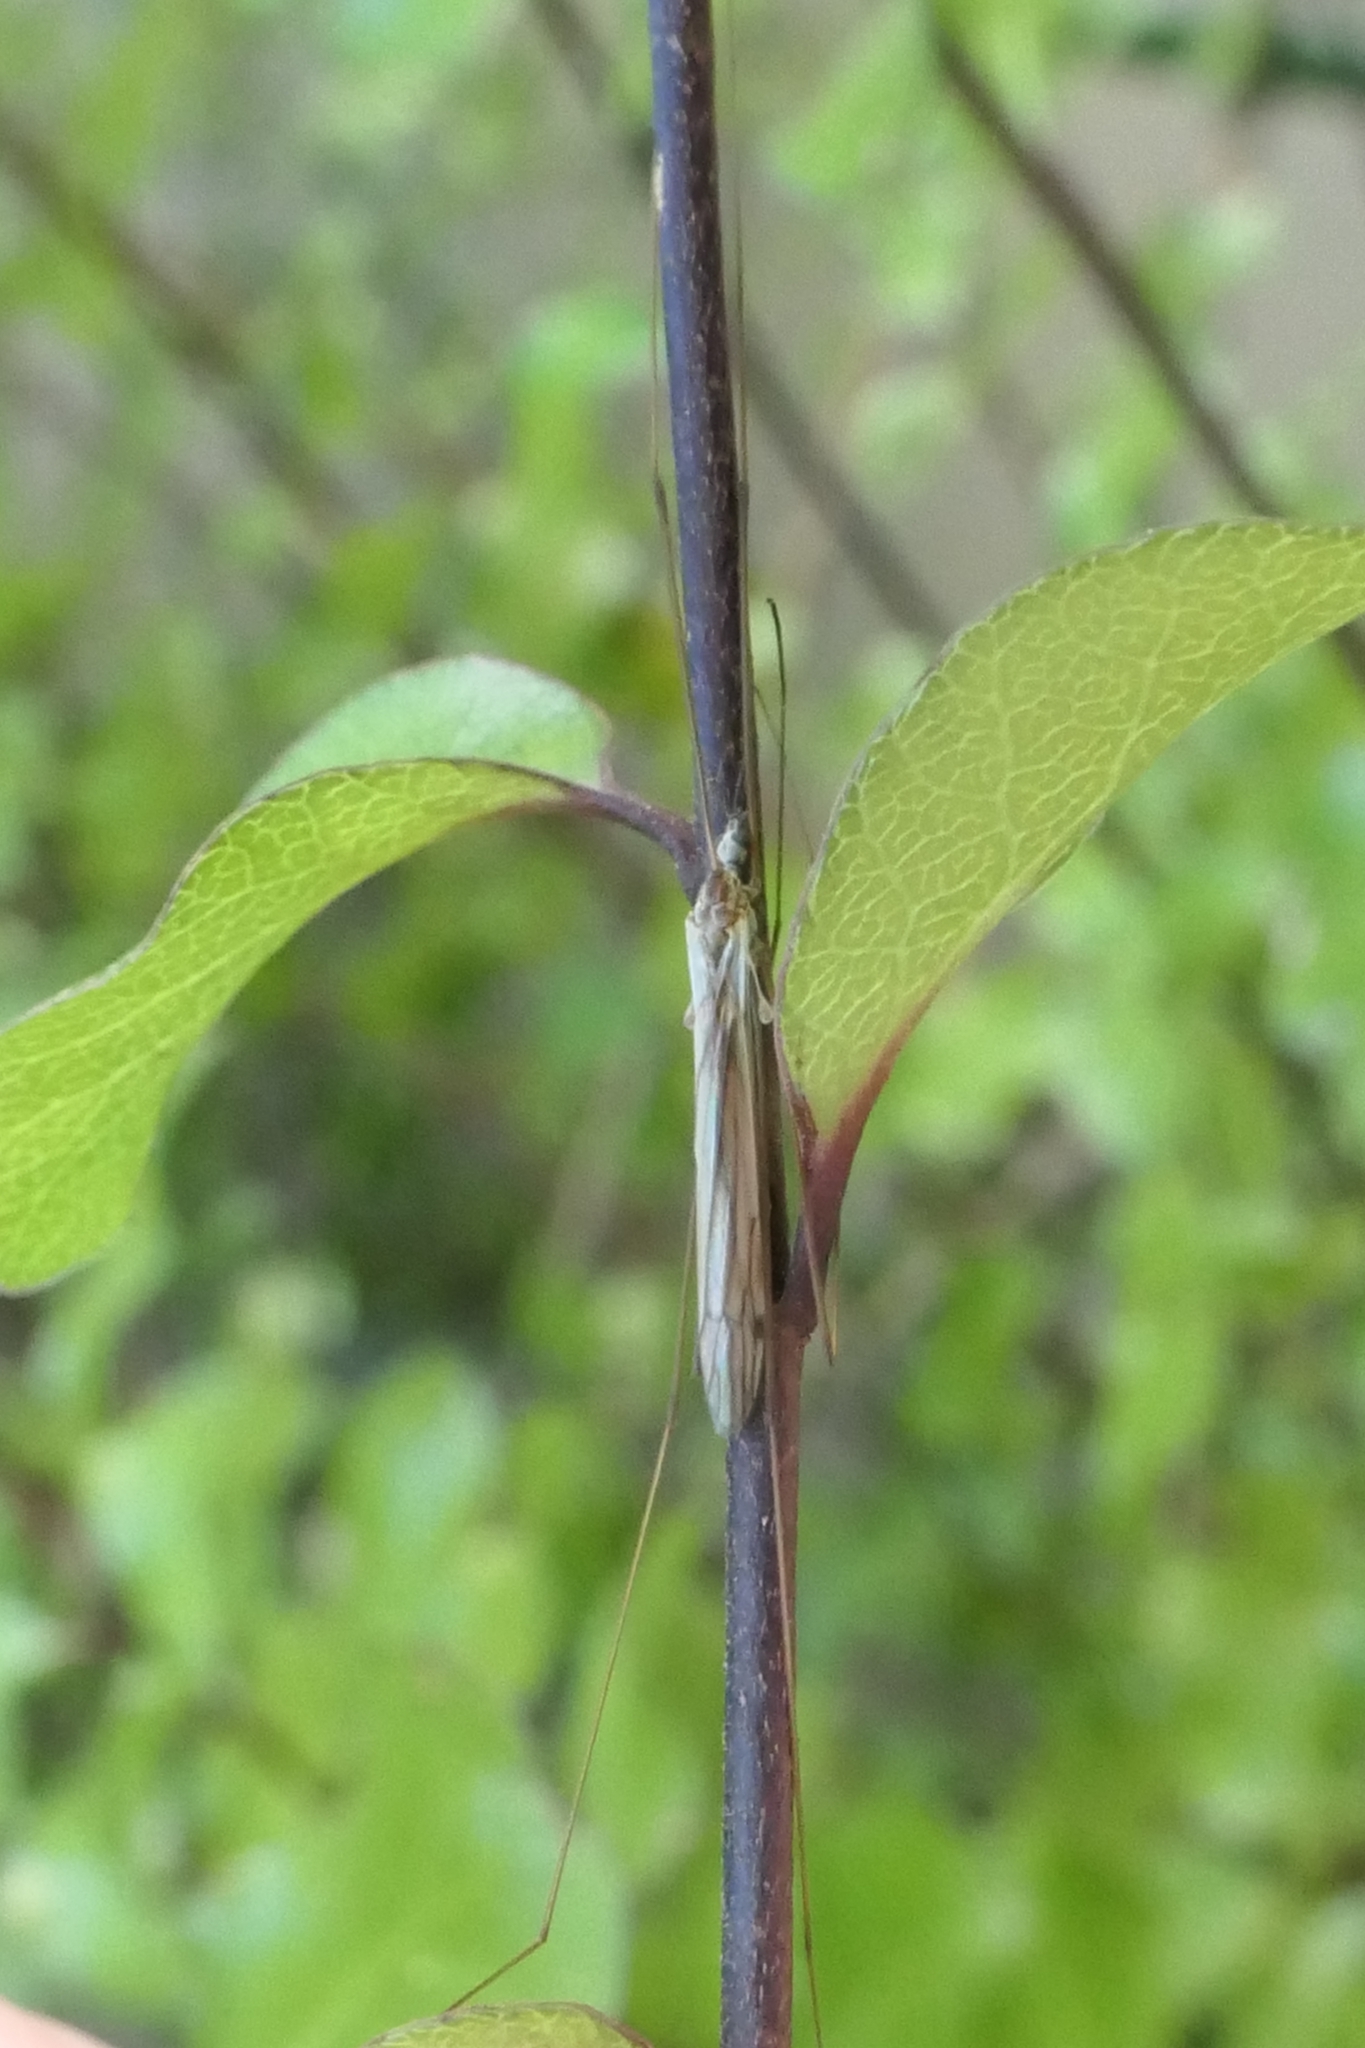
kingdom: Animalia
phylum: Arthropoda
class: Insecta
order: Diptera
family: Limoniidae
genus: Dicranomyia
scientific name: Dicranomyia aegrotans
